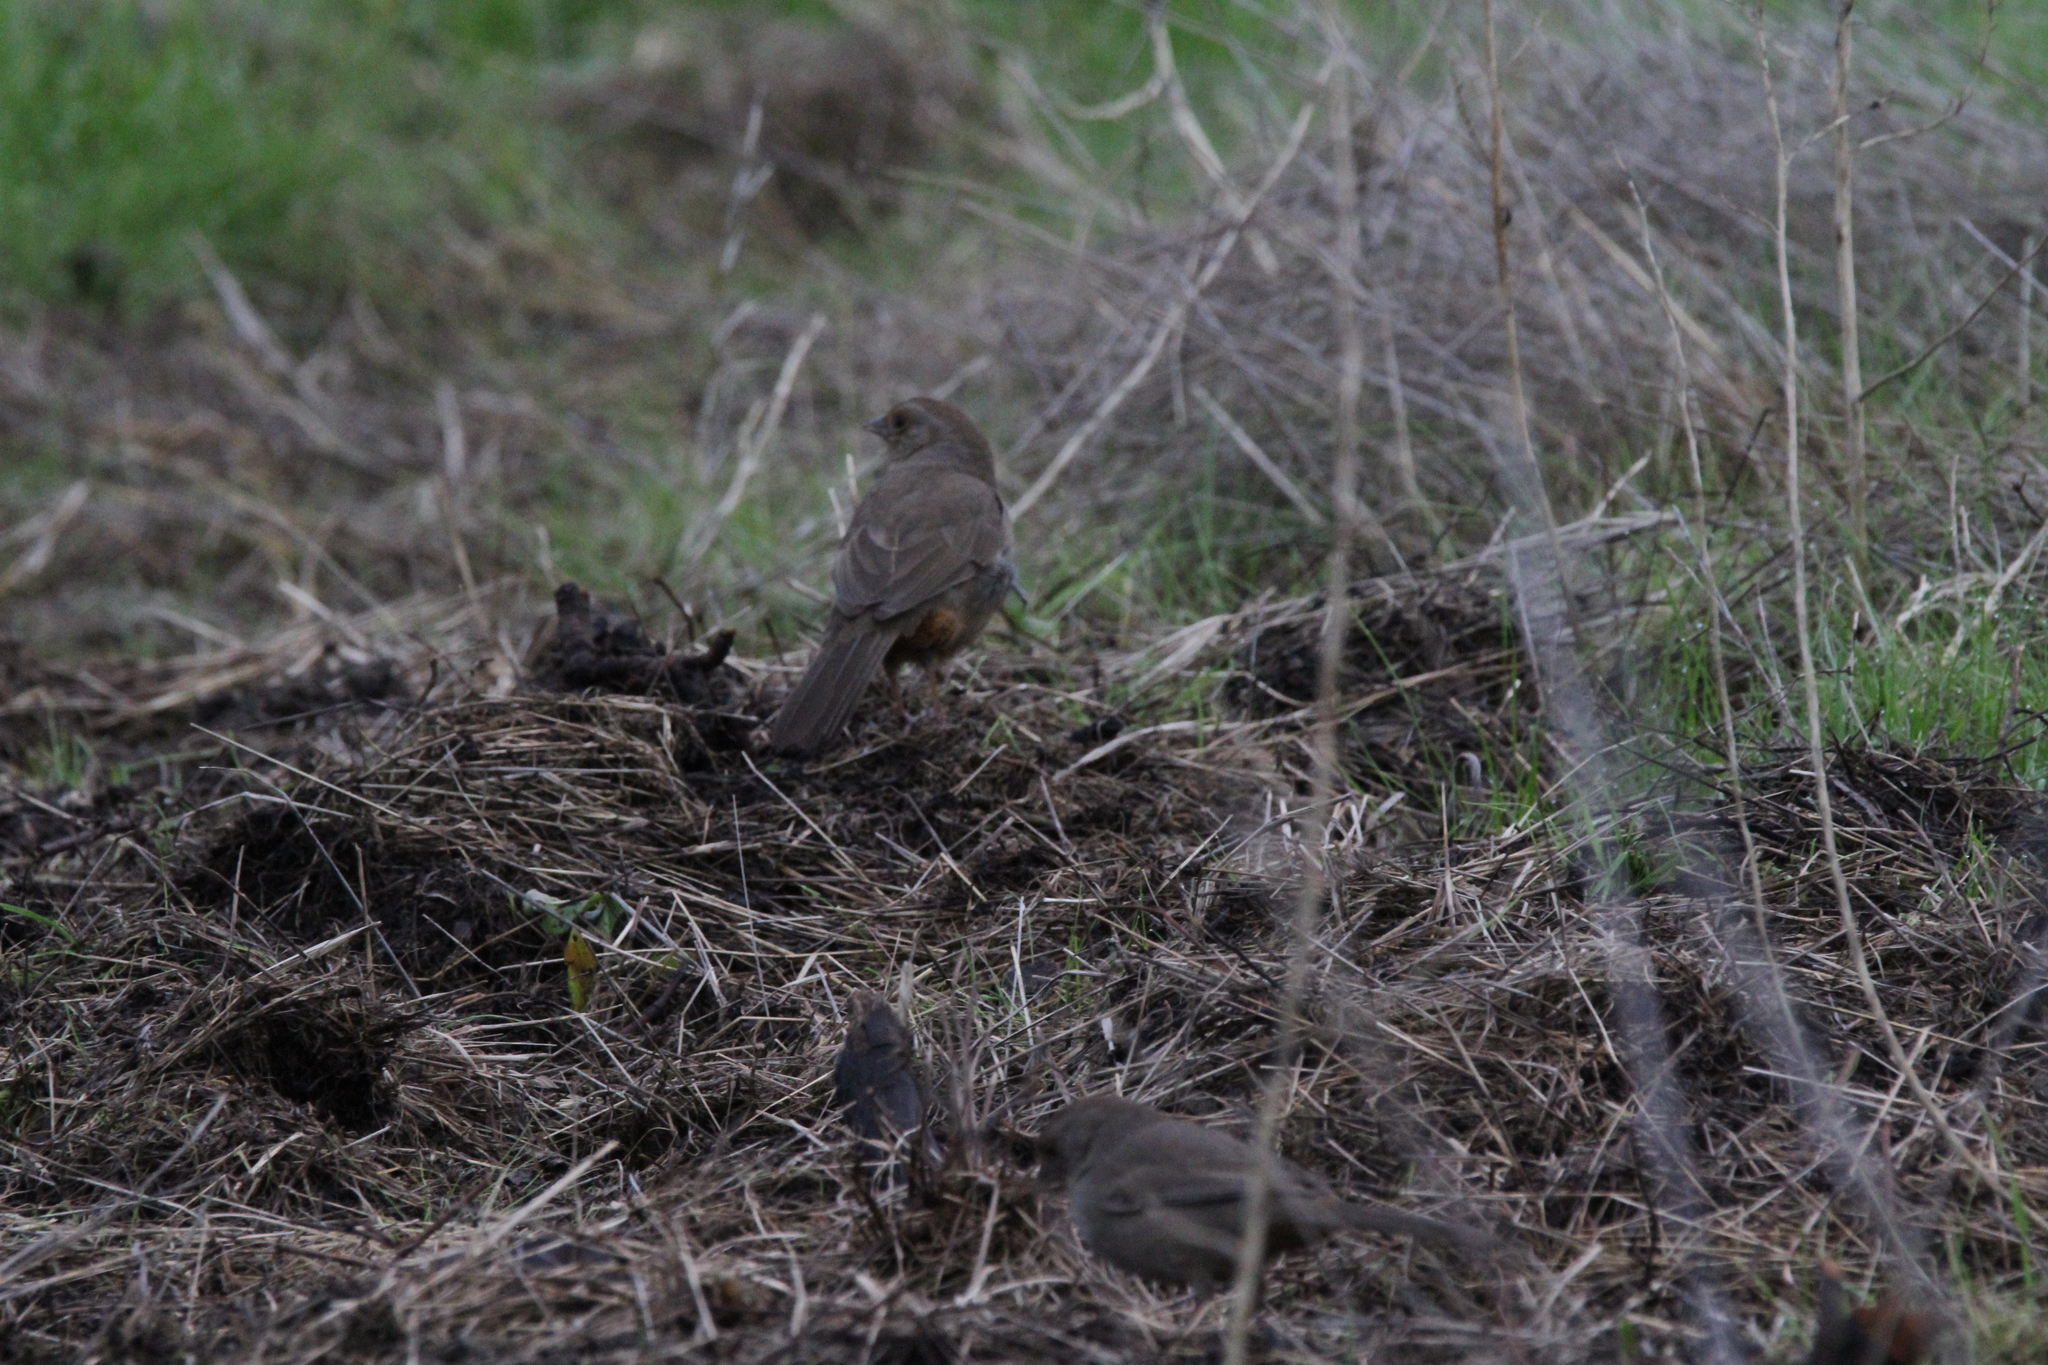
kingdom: Animalia
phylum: Chordata
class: Aves
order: Passeriformes
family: Passerellidae
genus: Melozone
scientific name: Melozone crissalis
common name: California towhee
